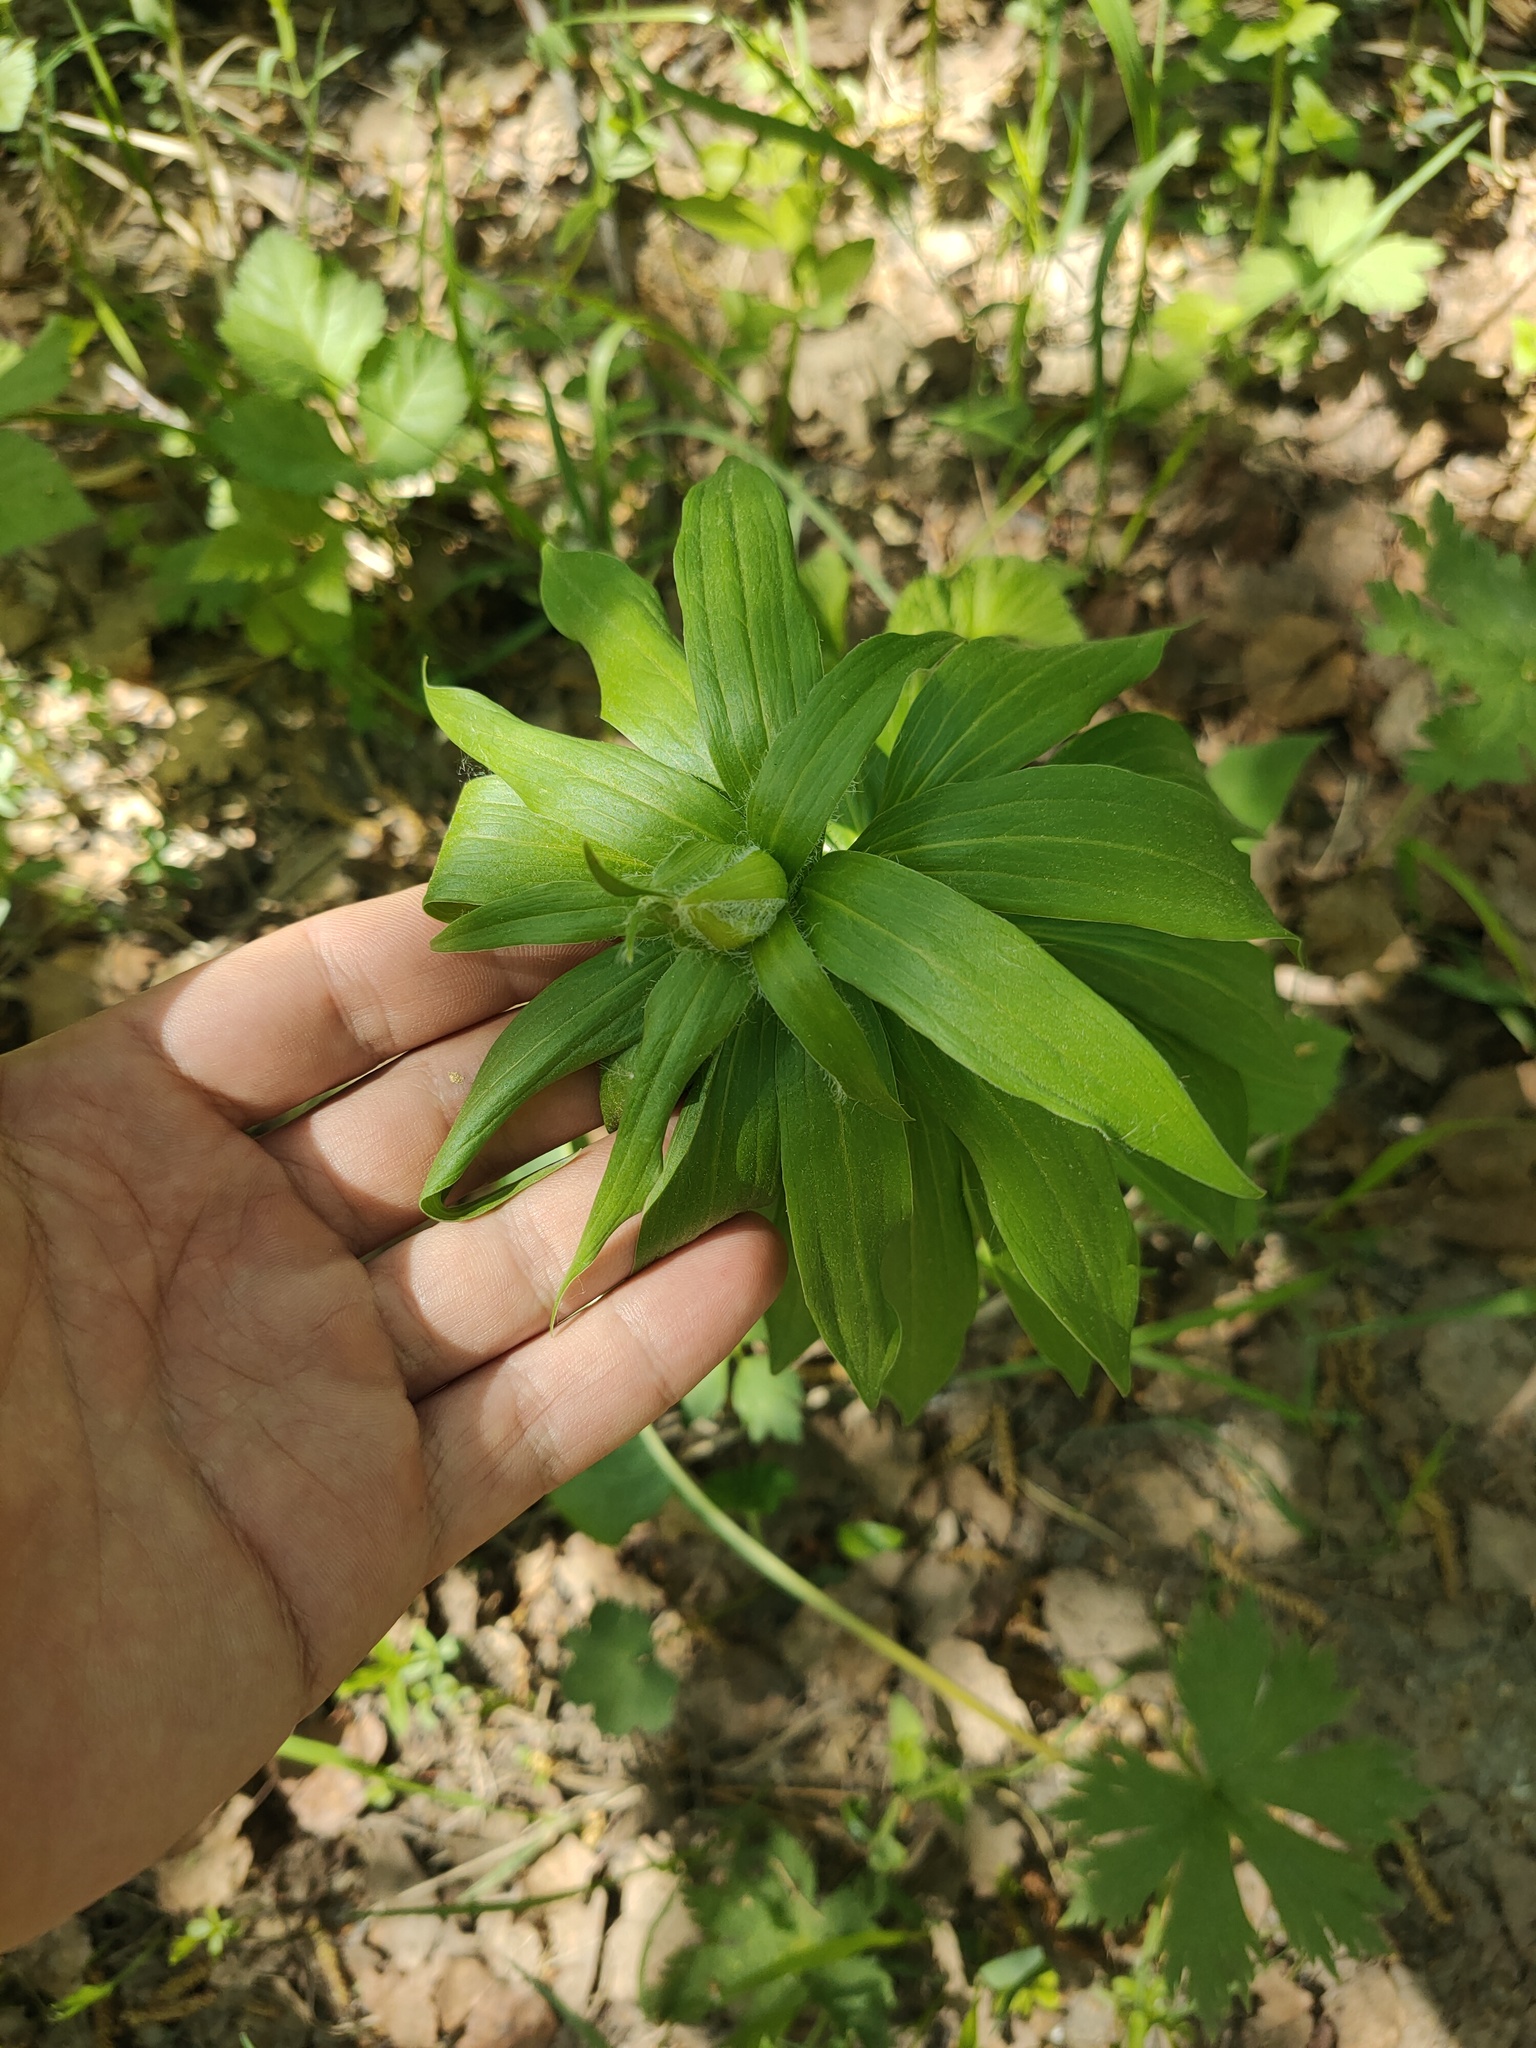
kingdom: Plantae
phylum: Tracheophyta
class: Liliopsida
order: Liliales
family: Liliaceae
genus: Lilium
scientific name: Lilium martagon
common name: Martagon lily
